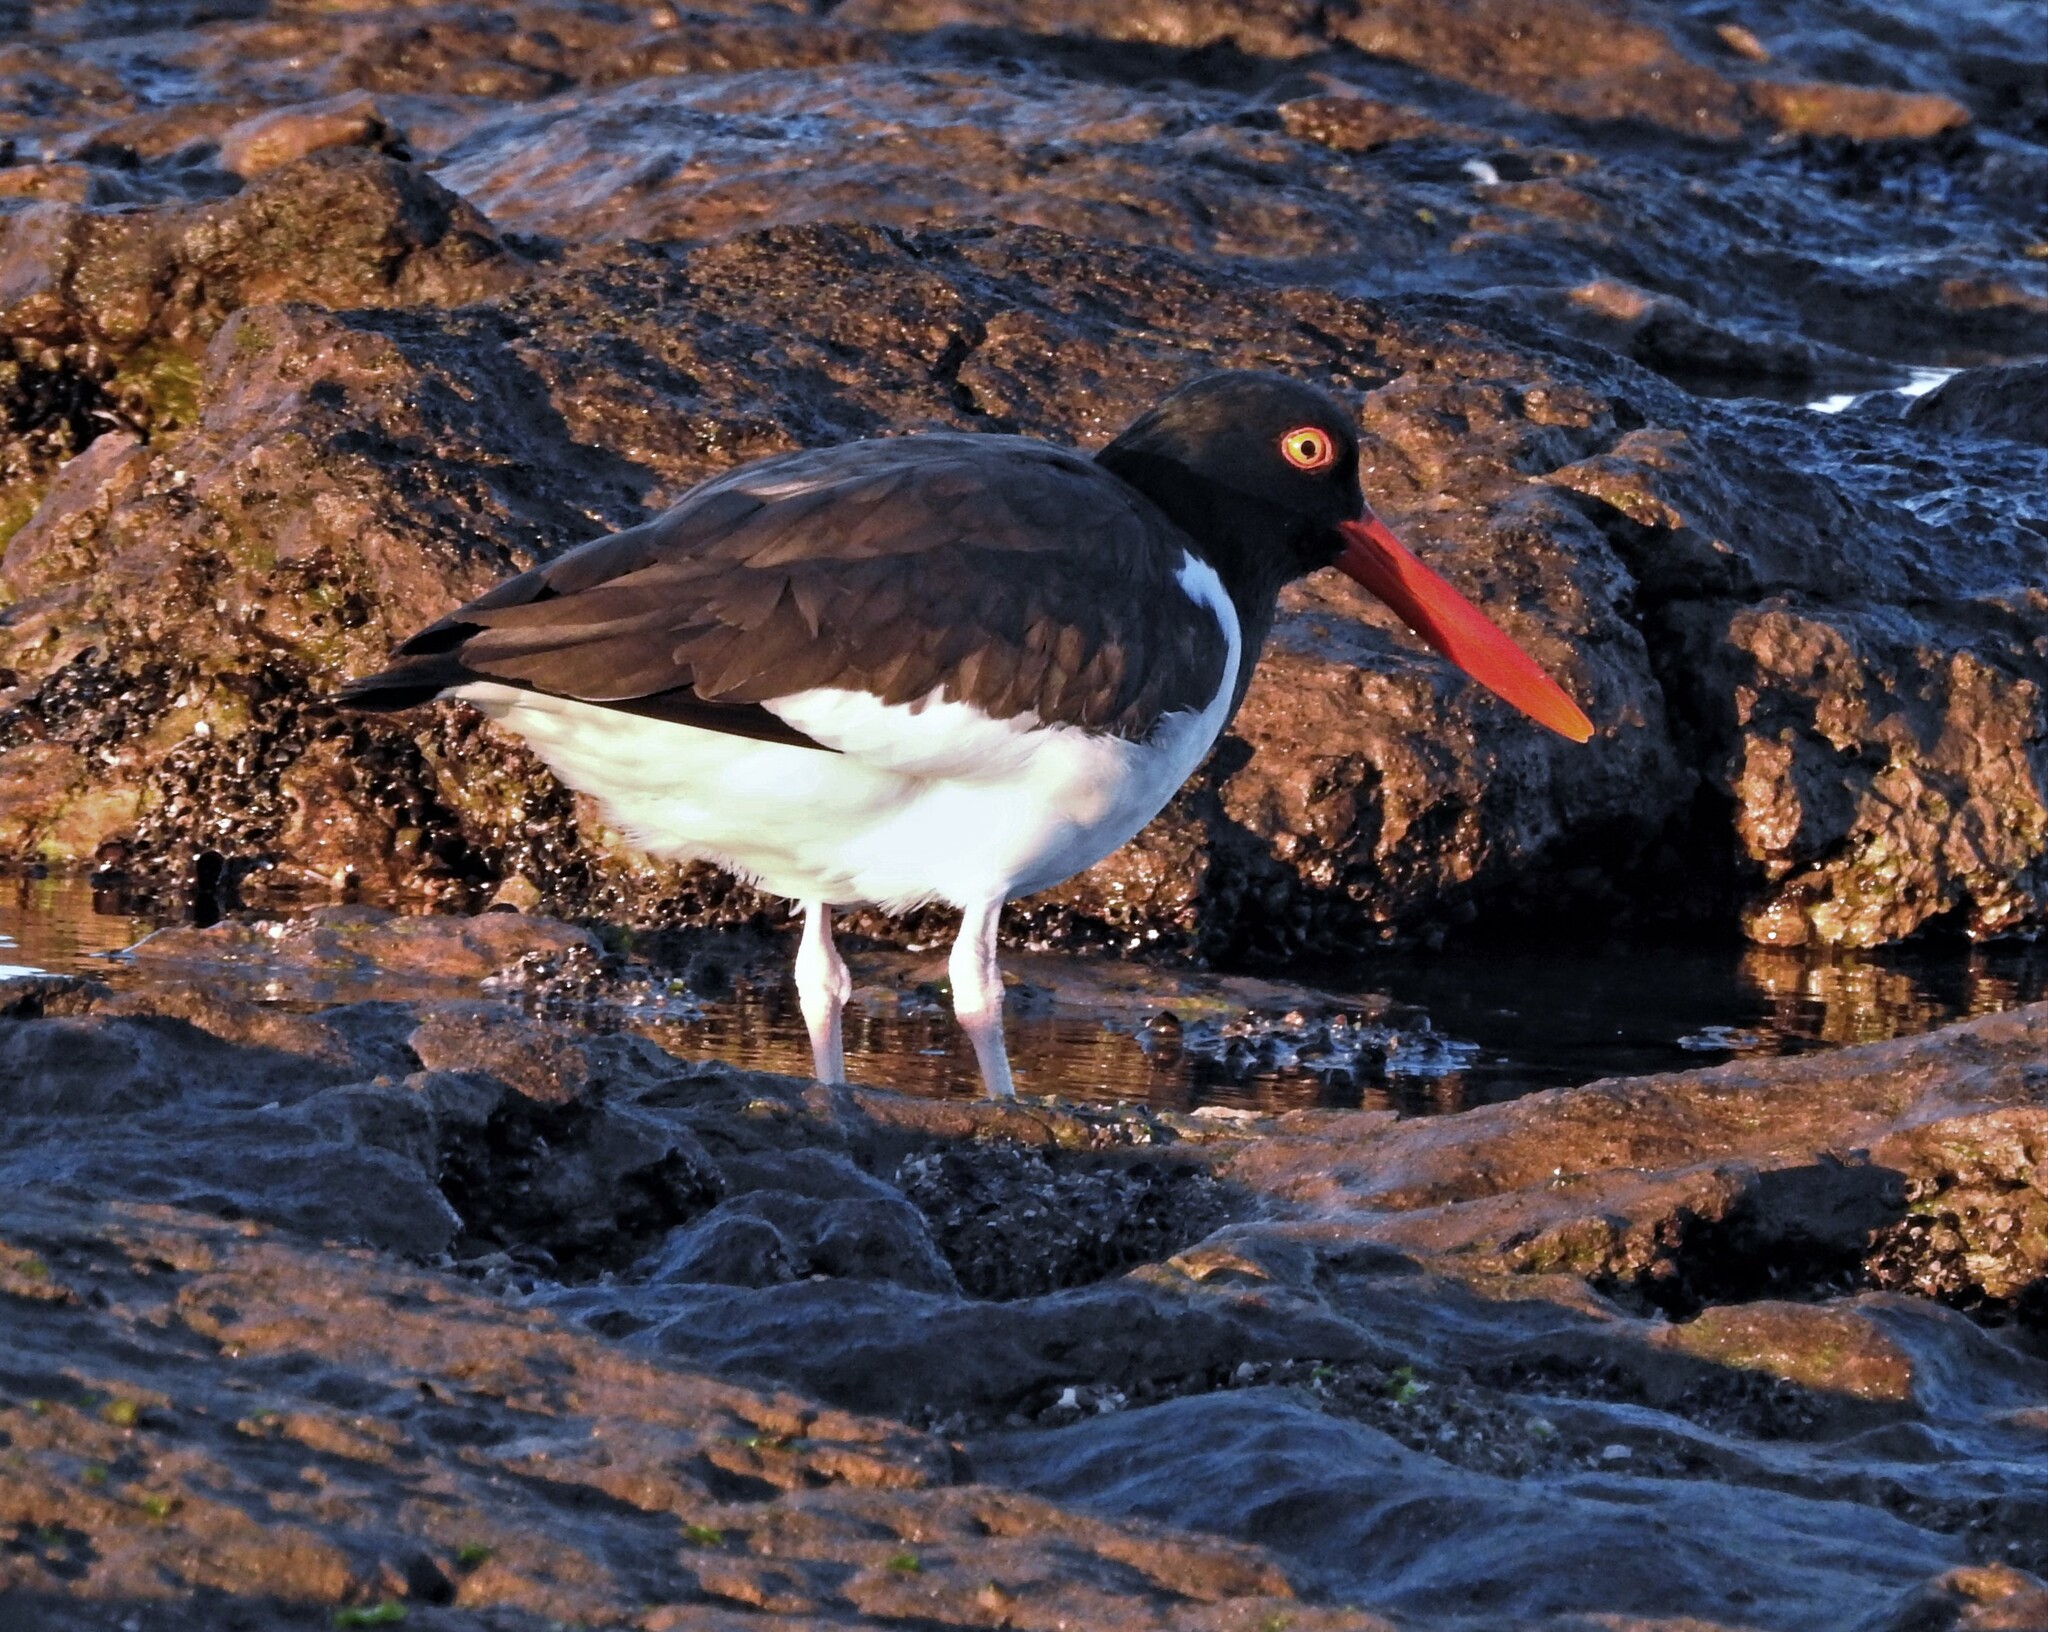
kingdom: Animalia
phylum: Chordata
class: Aves
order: Charadriiformes
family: Haematopodidae
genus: Haematopus
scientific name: Haematopus palliatus
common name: American oystercatcher
